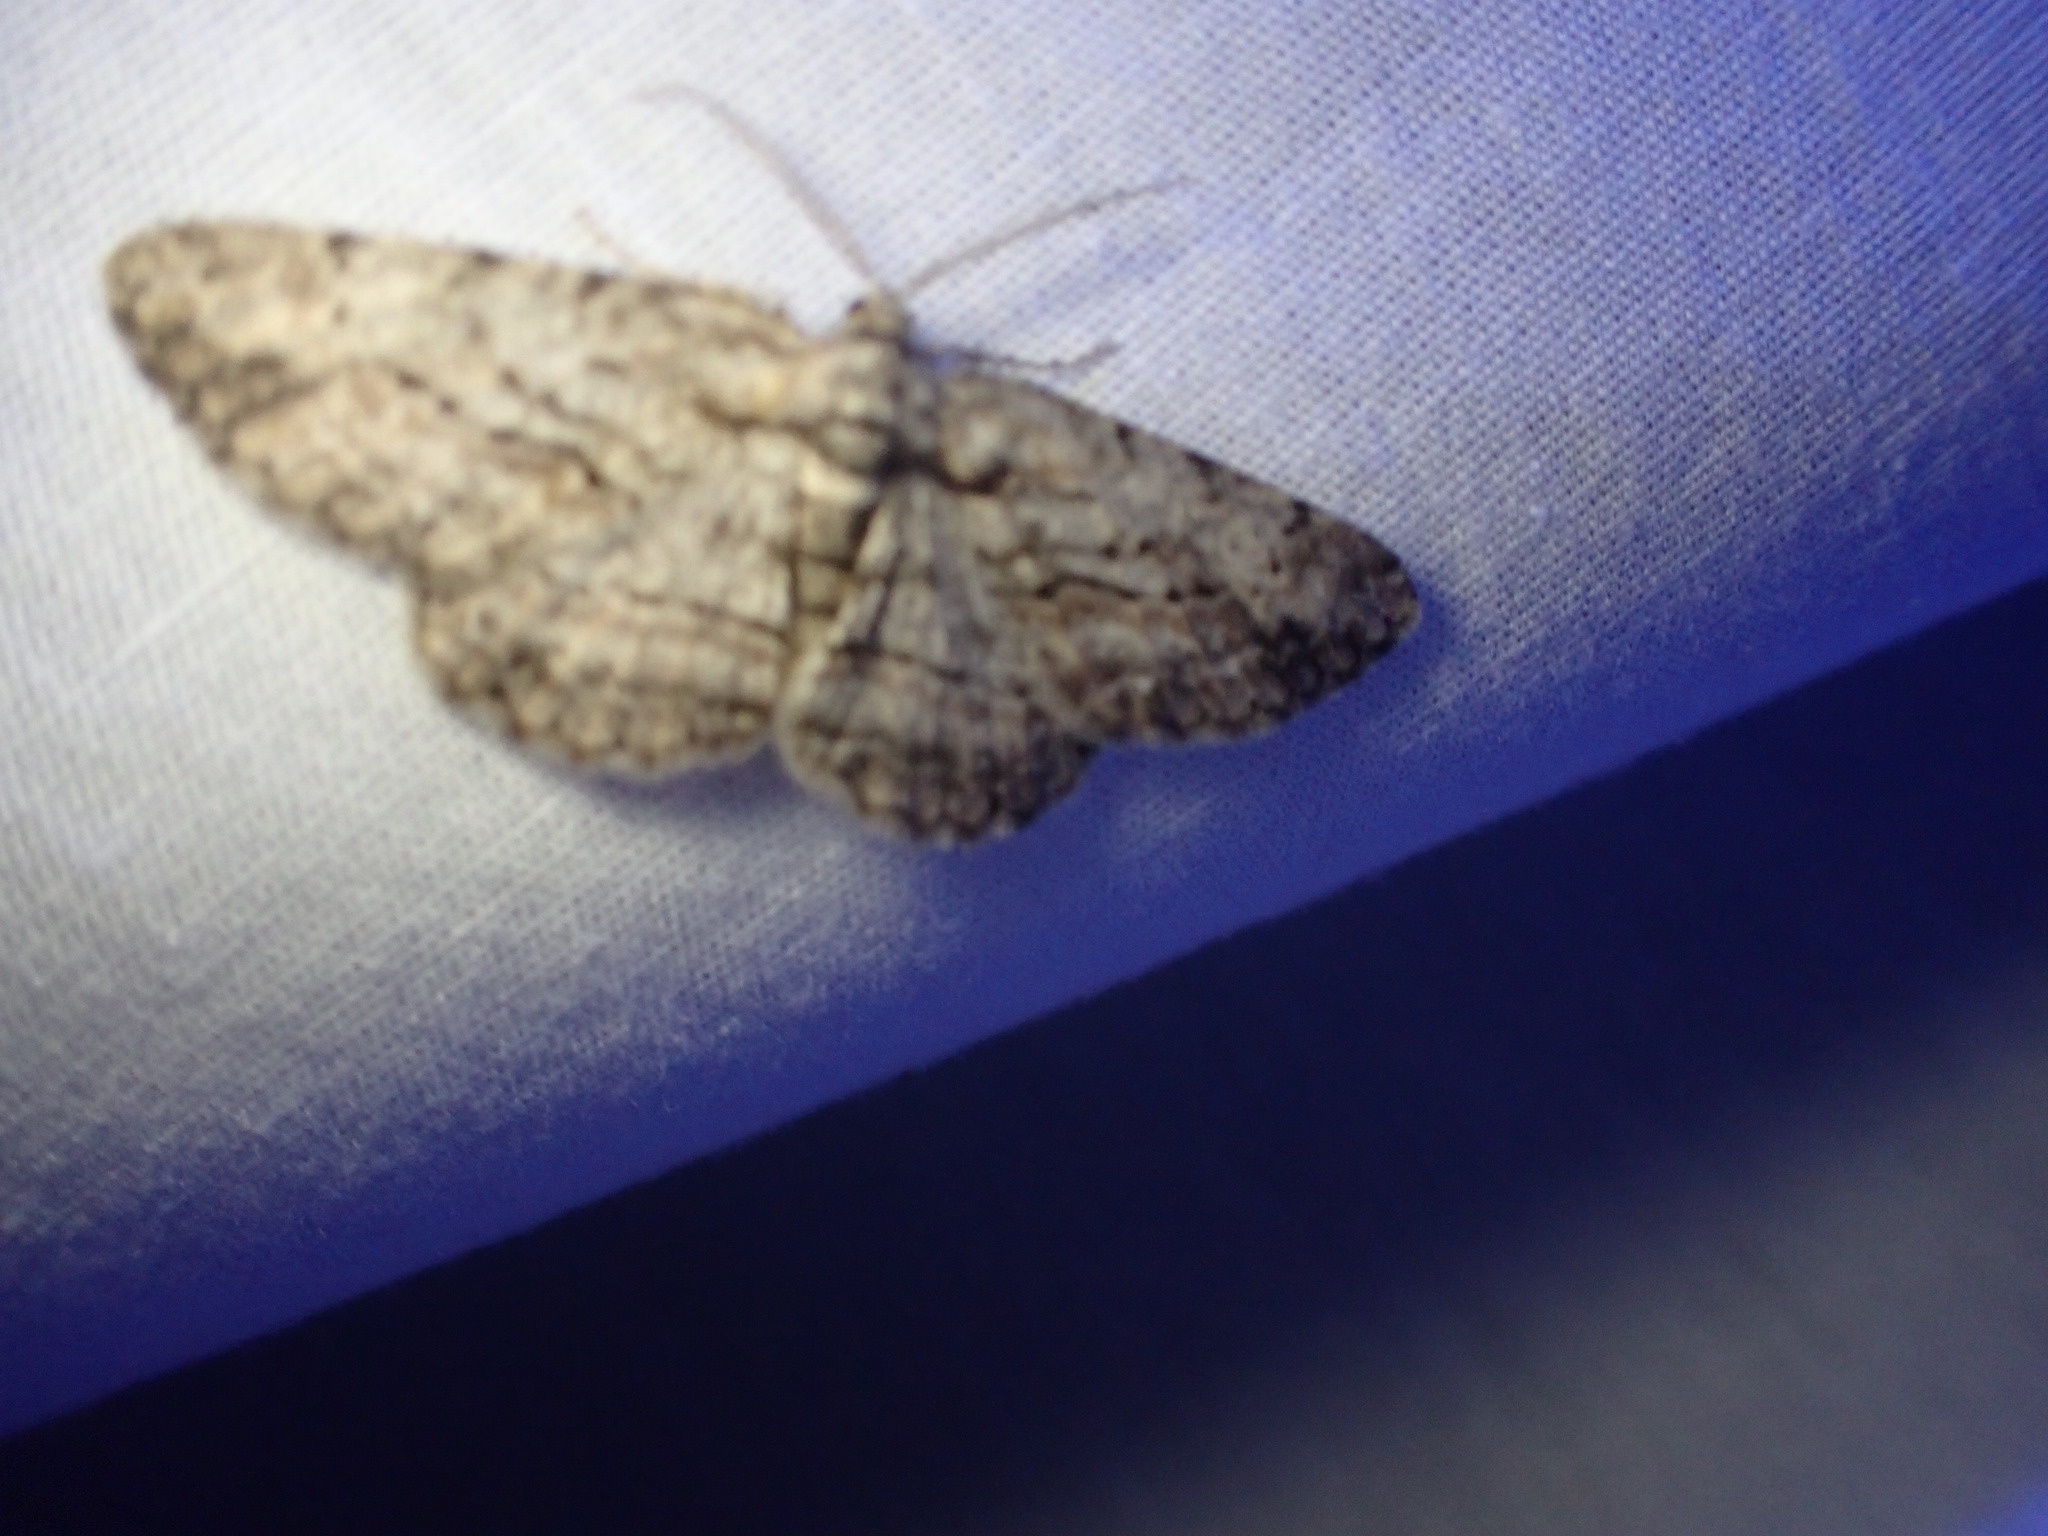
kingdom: Animalia
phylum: Arthropoda
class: Insecta
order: Lepidoptera
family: Geometridae
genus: Anavitrinella
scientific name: Anavitrinella pampinaria
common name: Common gray
